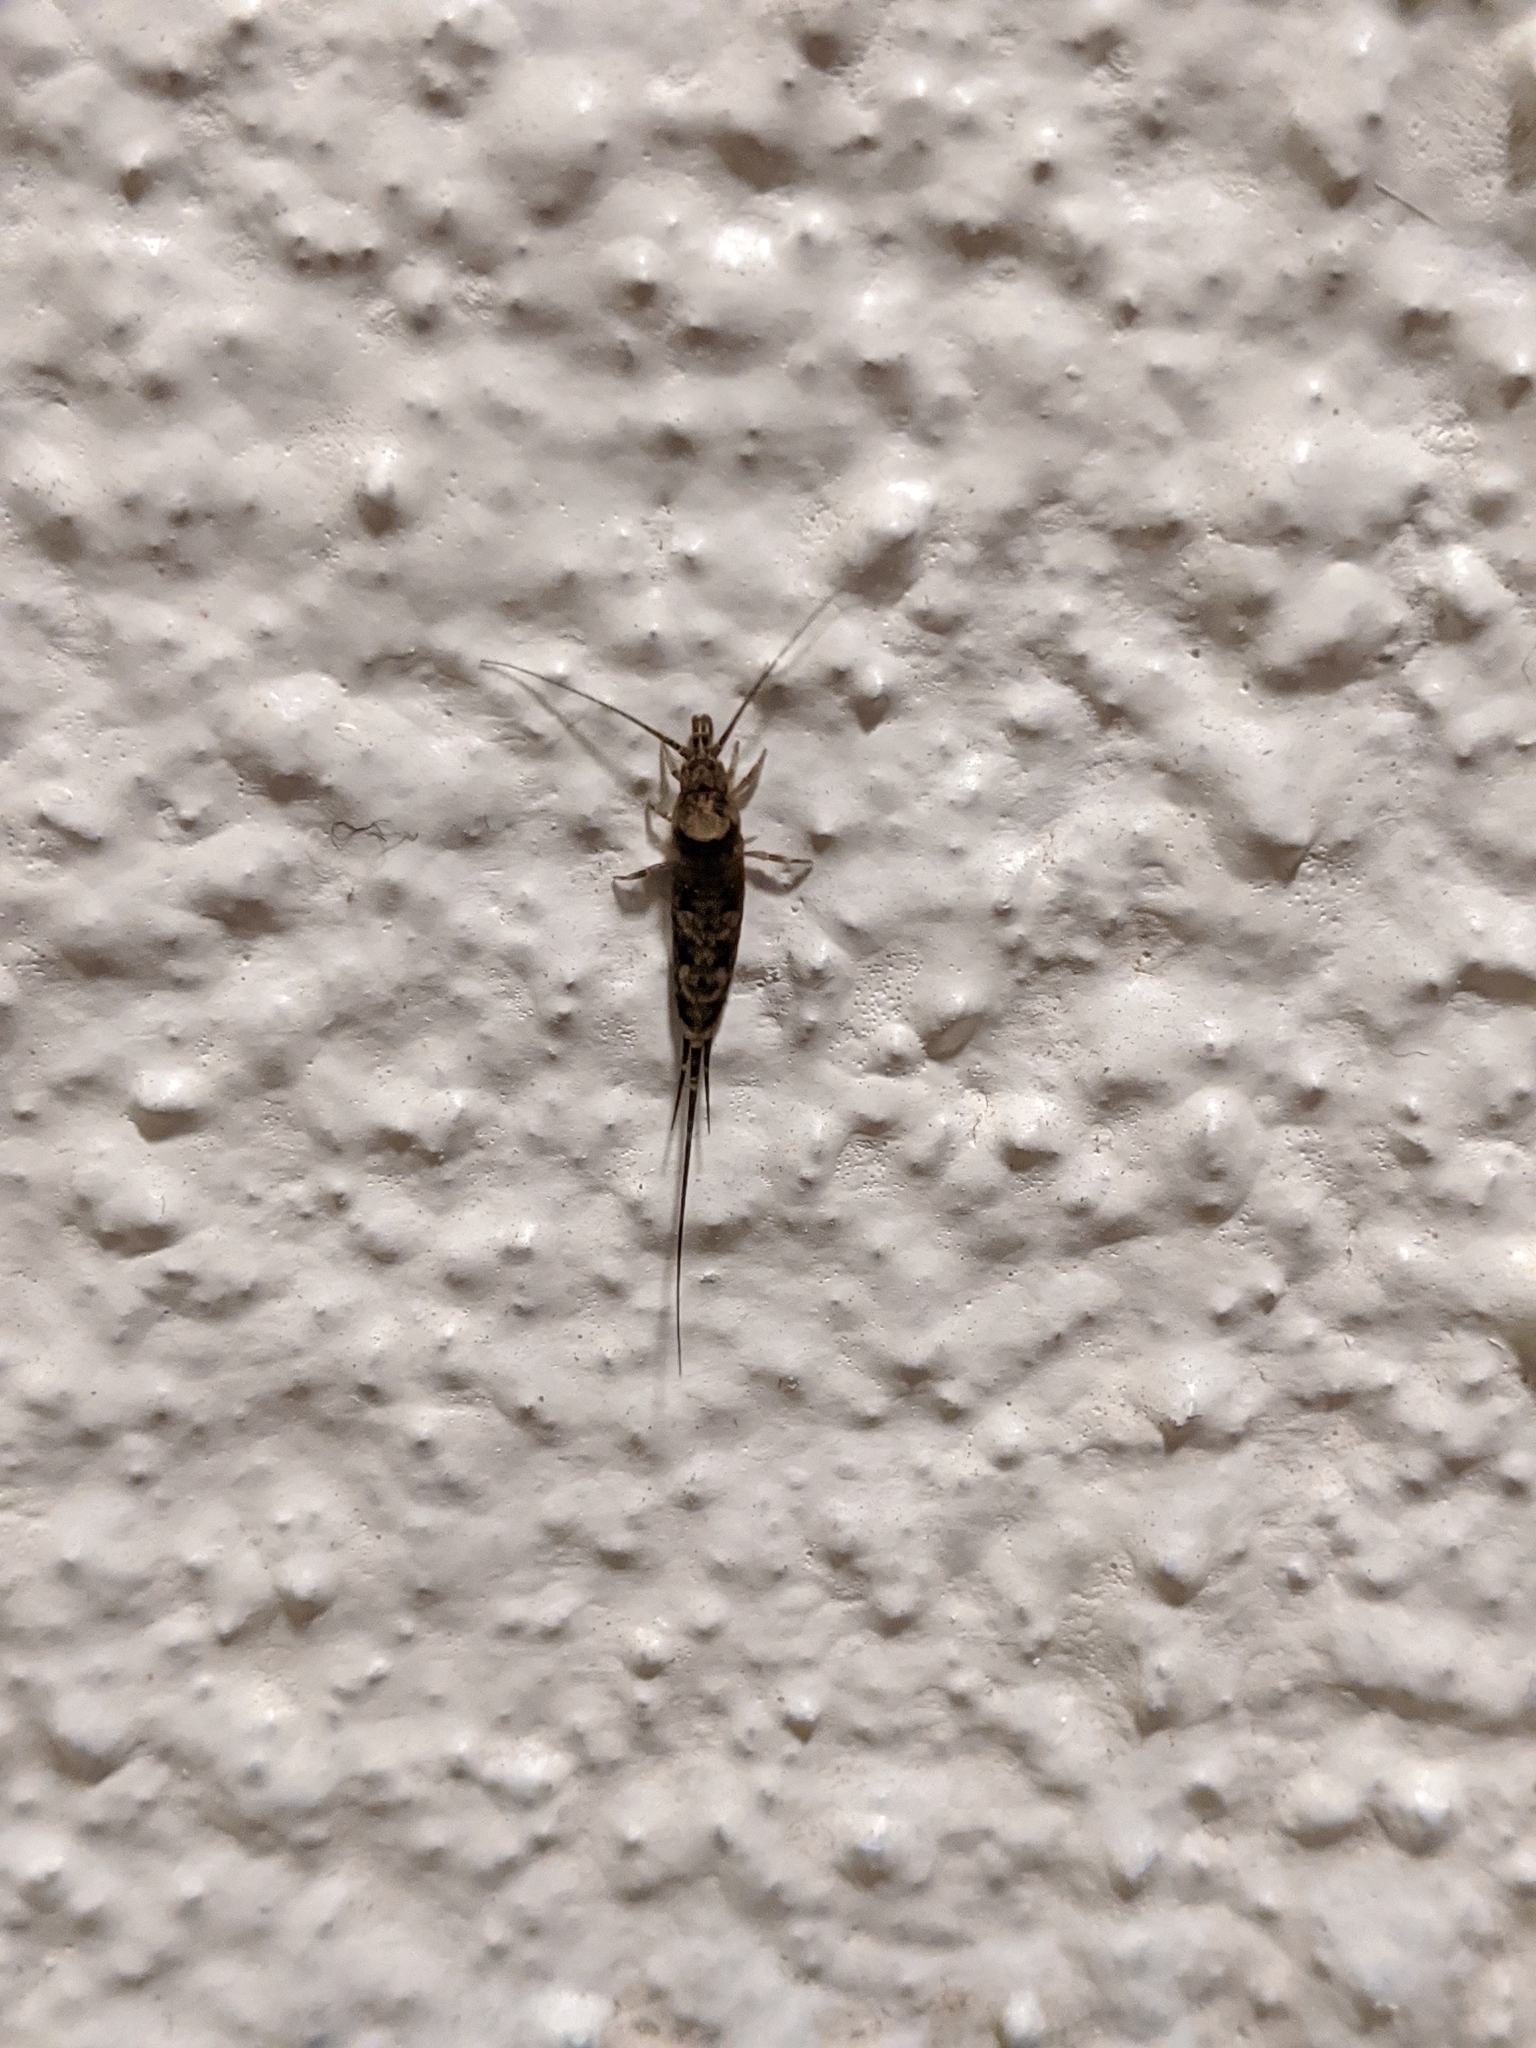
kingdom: Animalia
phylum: Arthropoda
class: Insecta
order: Archaeognatha
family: Machilidae
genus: Trigoniophthalmus
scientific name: Trigoniophthalmus alternatus
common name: Jumping bristletail
